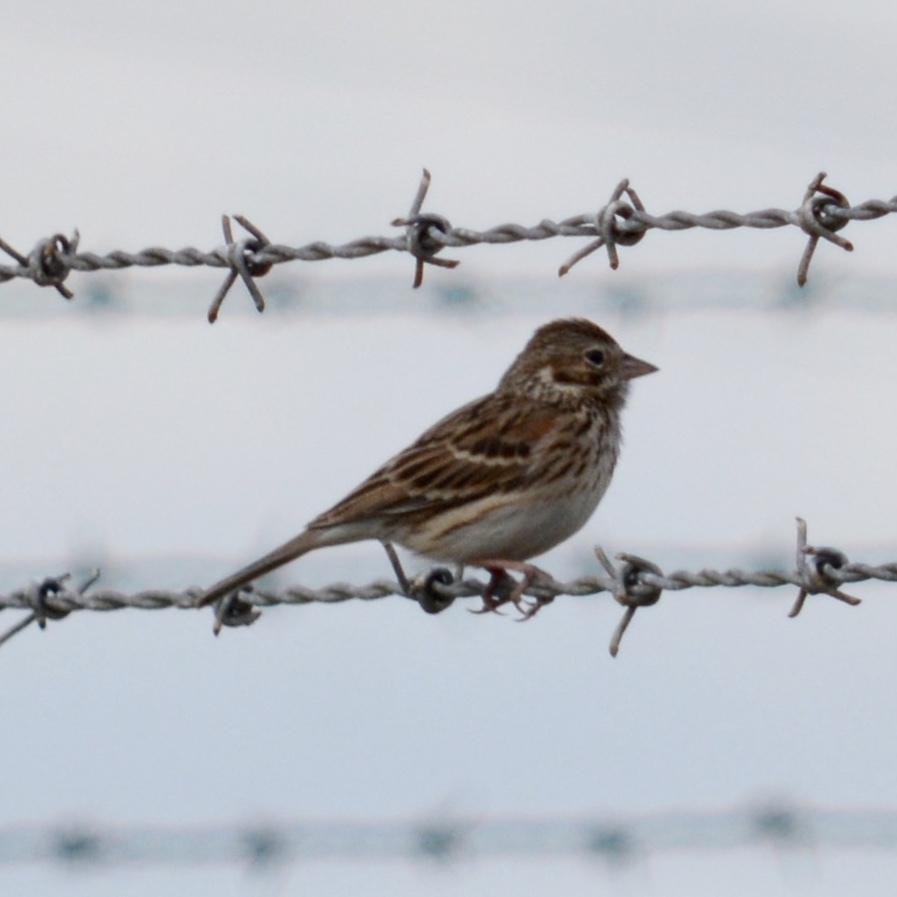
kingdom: Animalia
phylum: Chordata
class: Aves
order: Passeriformes
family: Passerellidae
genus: Pooecetes
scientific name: Pooecetes gramineus
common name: Vesper sparrow
